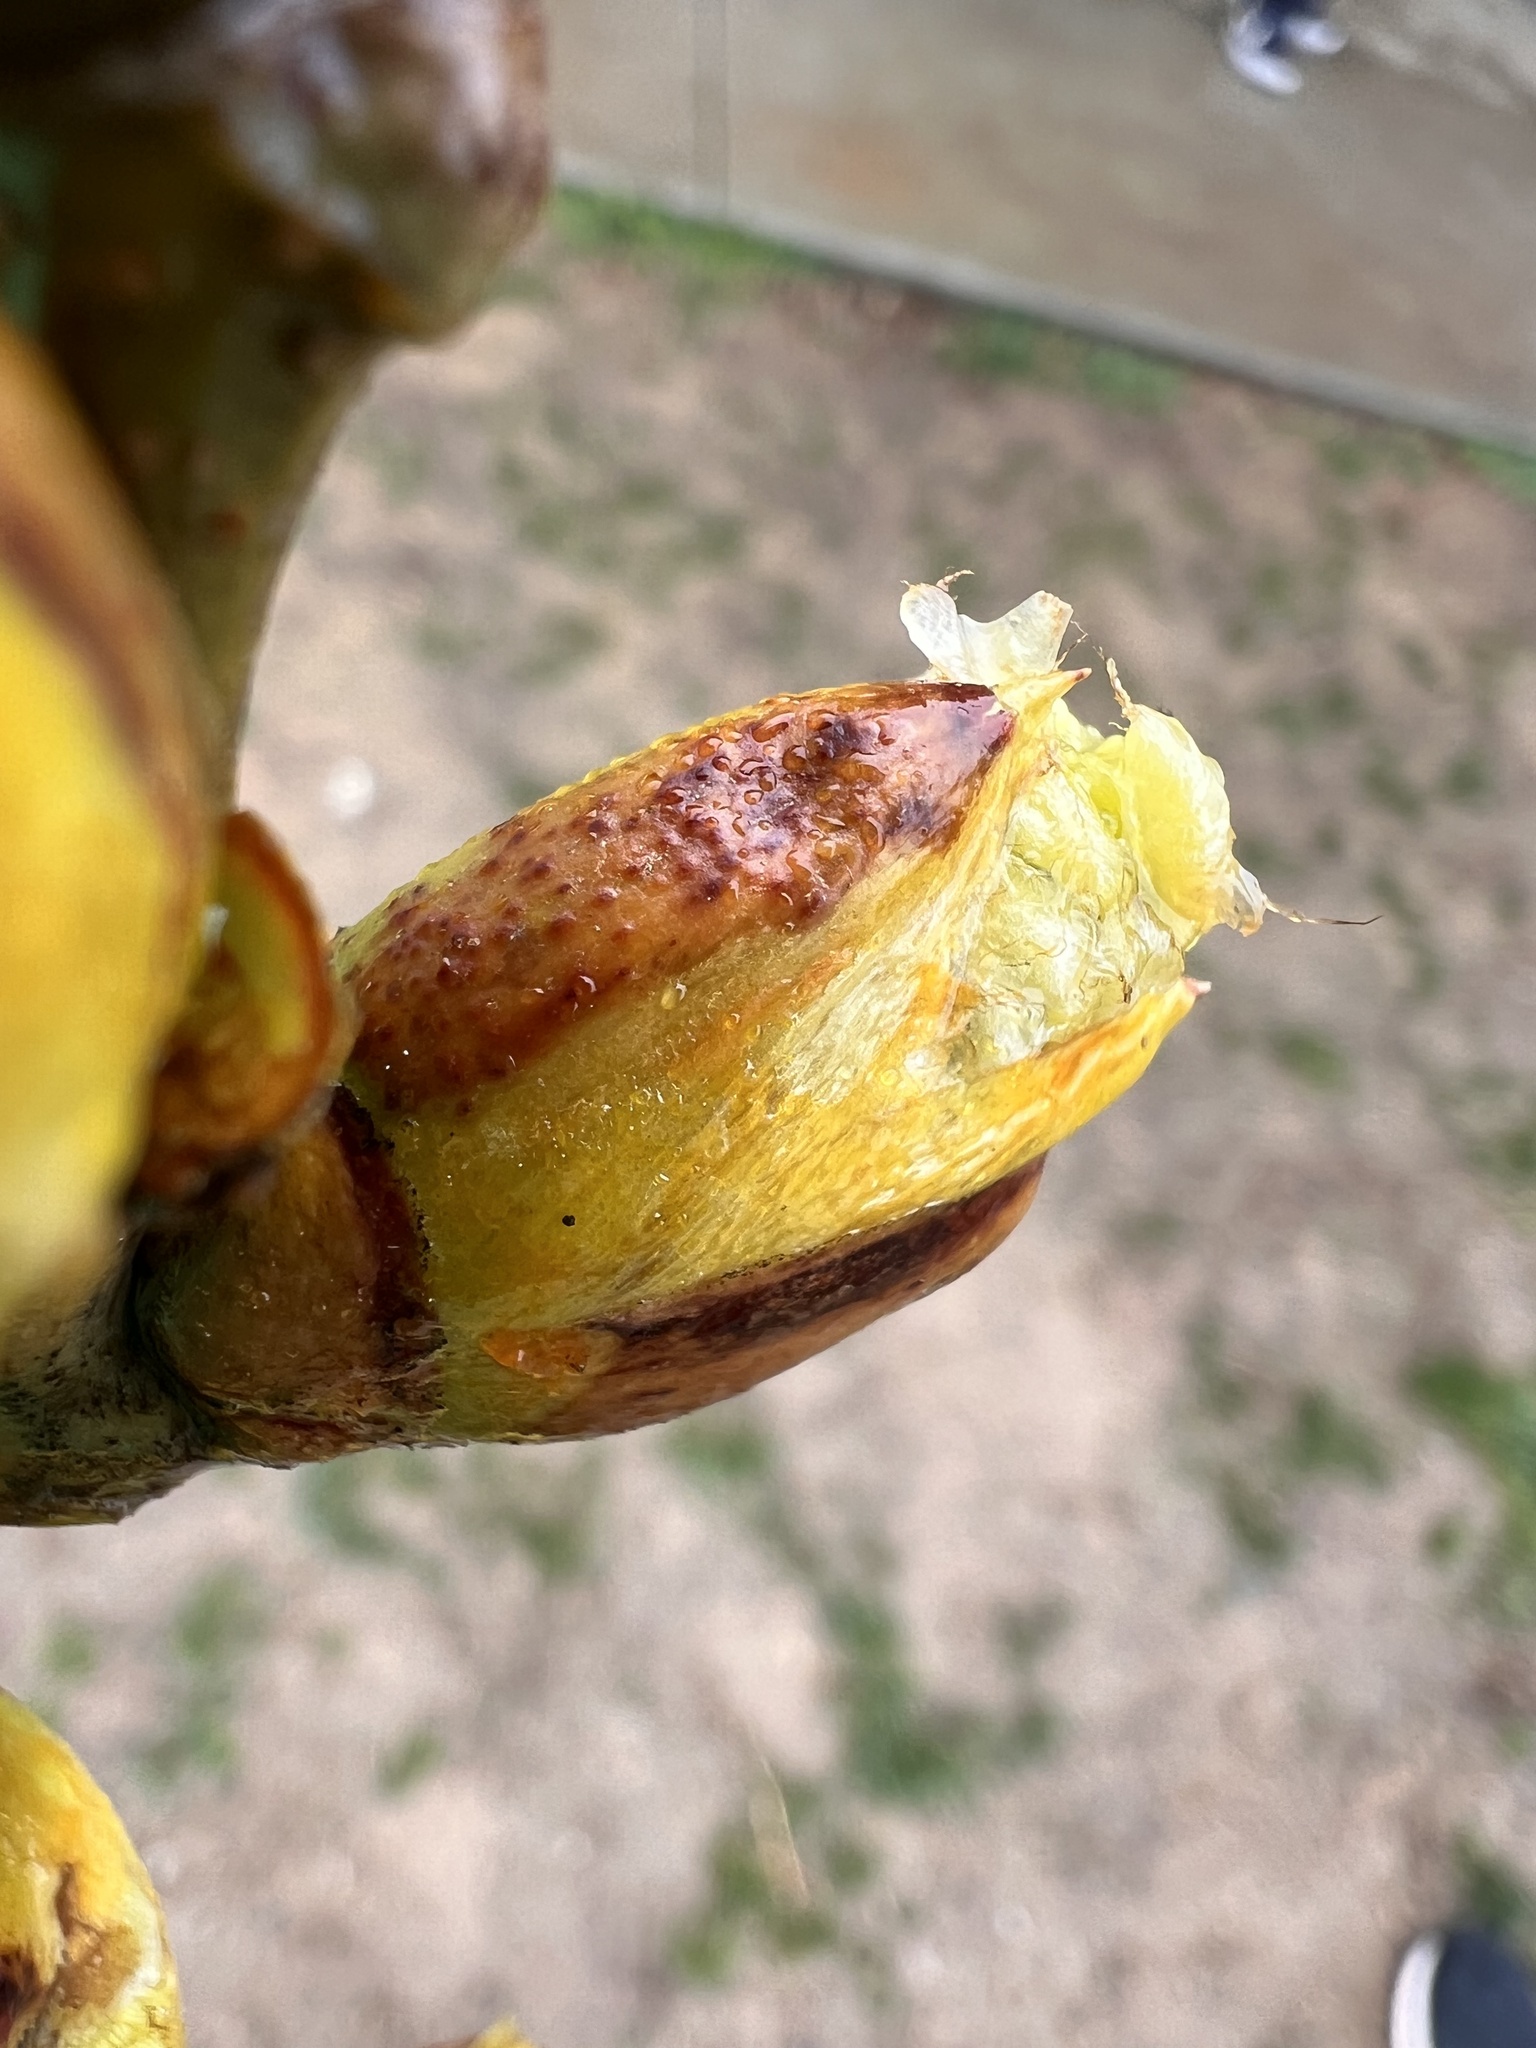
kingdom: Plantae
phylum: Tracheophyta
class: Magnoliopsida
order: Malpighiales
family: Salicaceae
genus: Populus
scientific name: Populus deltoides
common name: Eastern cottonwood
